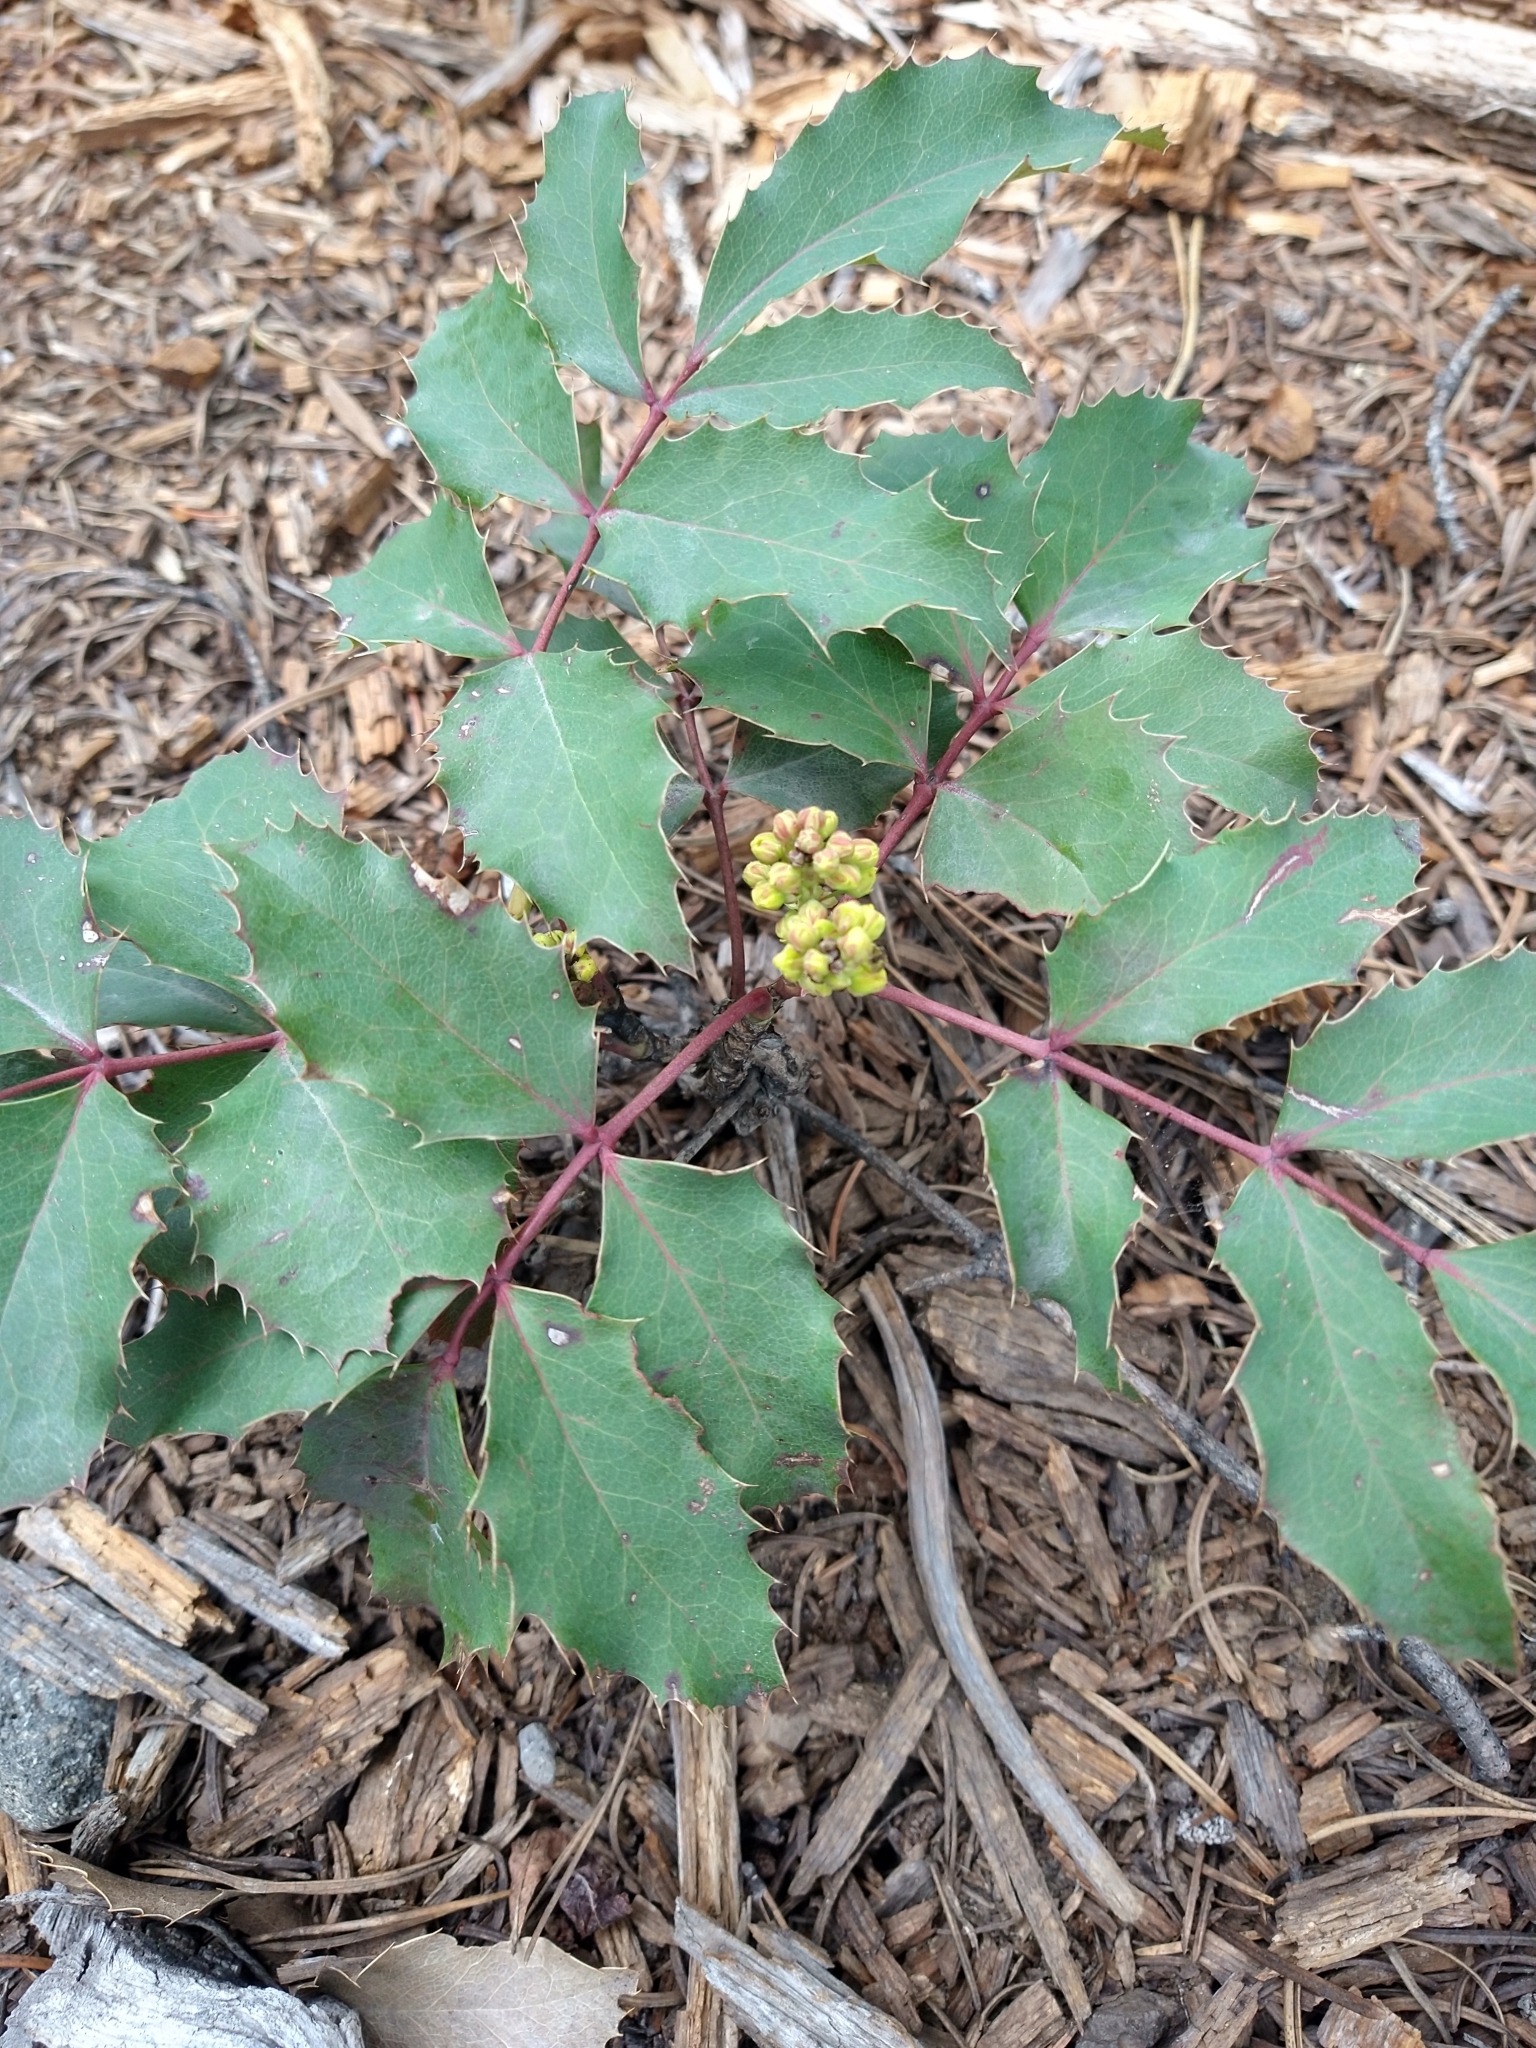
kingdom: Plantae
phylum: Tracheophyta
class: Magnoliopsida
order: Ranunculales
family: Berberidaceae
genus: Mahonia
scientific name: Mahonia repens
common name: Creeping oregon-grape
